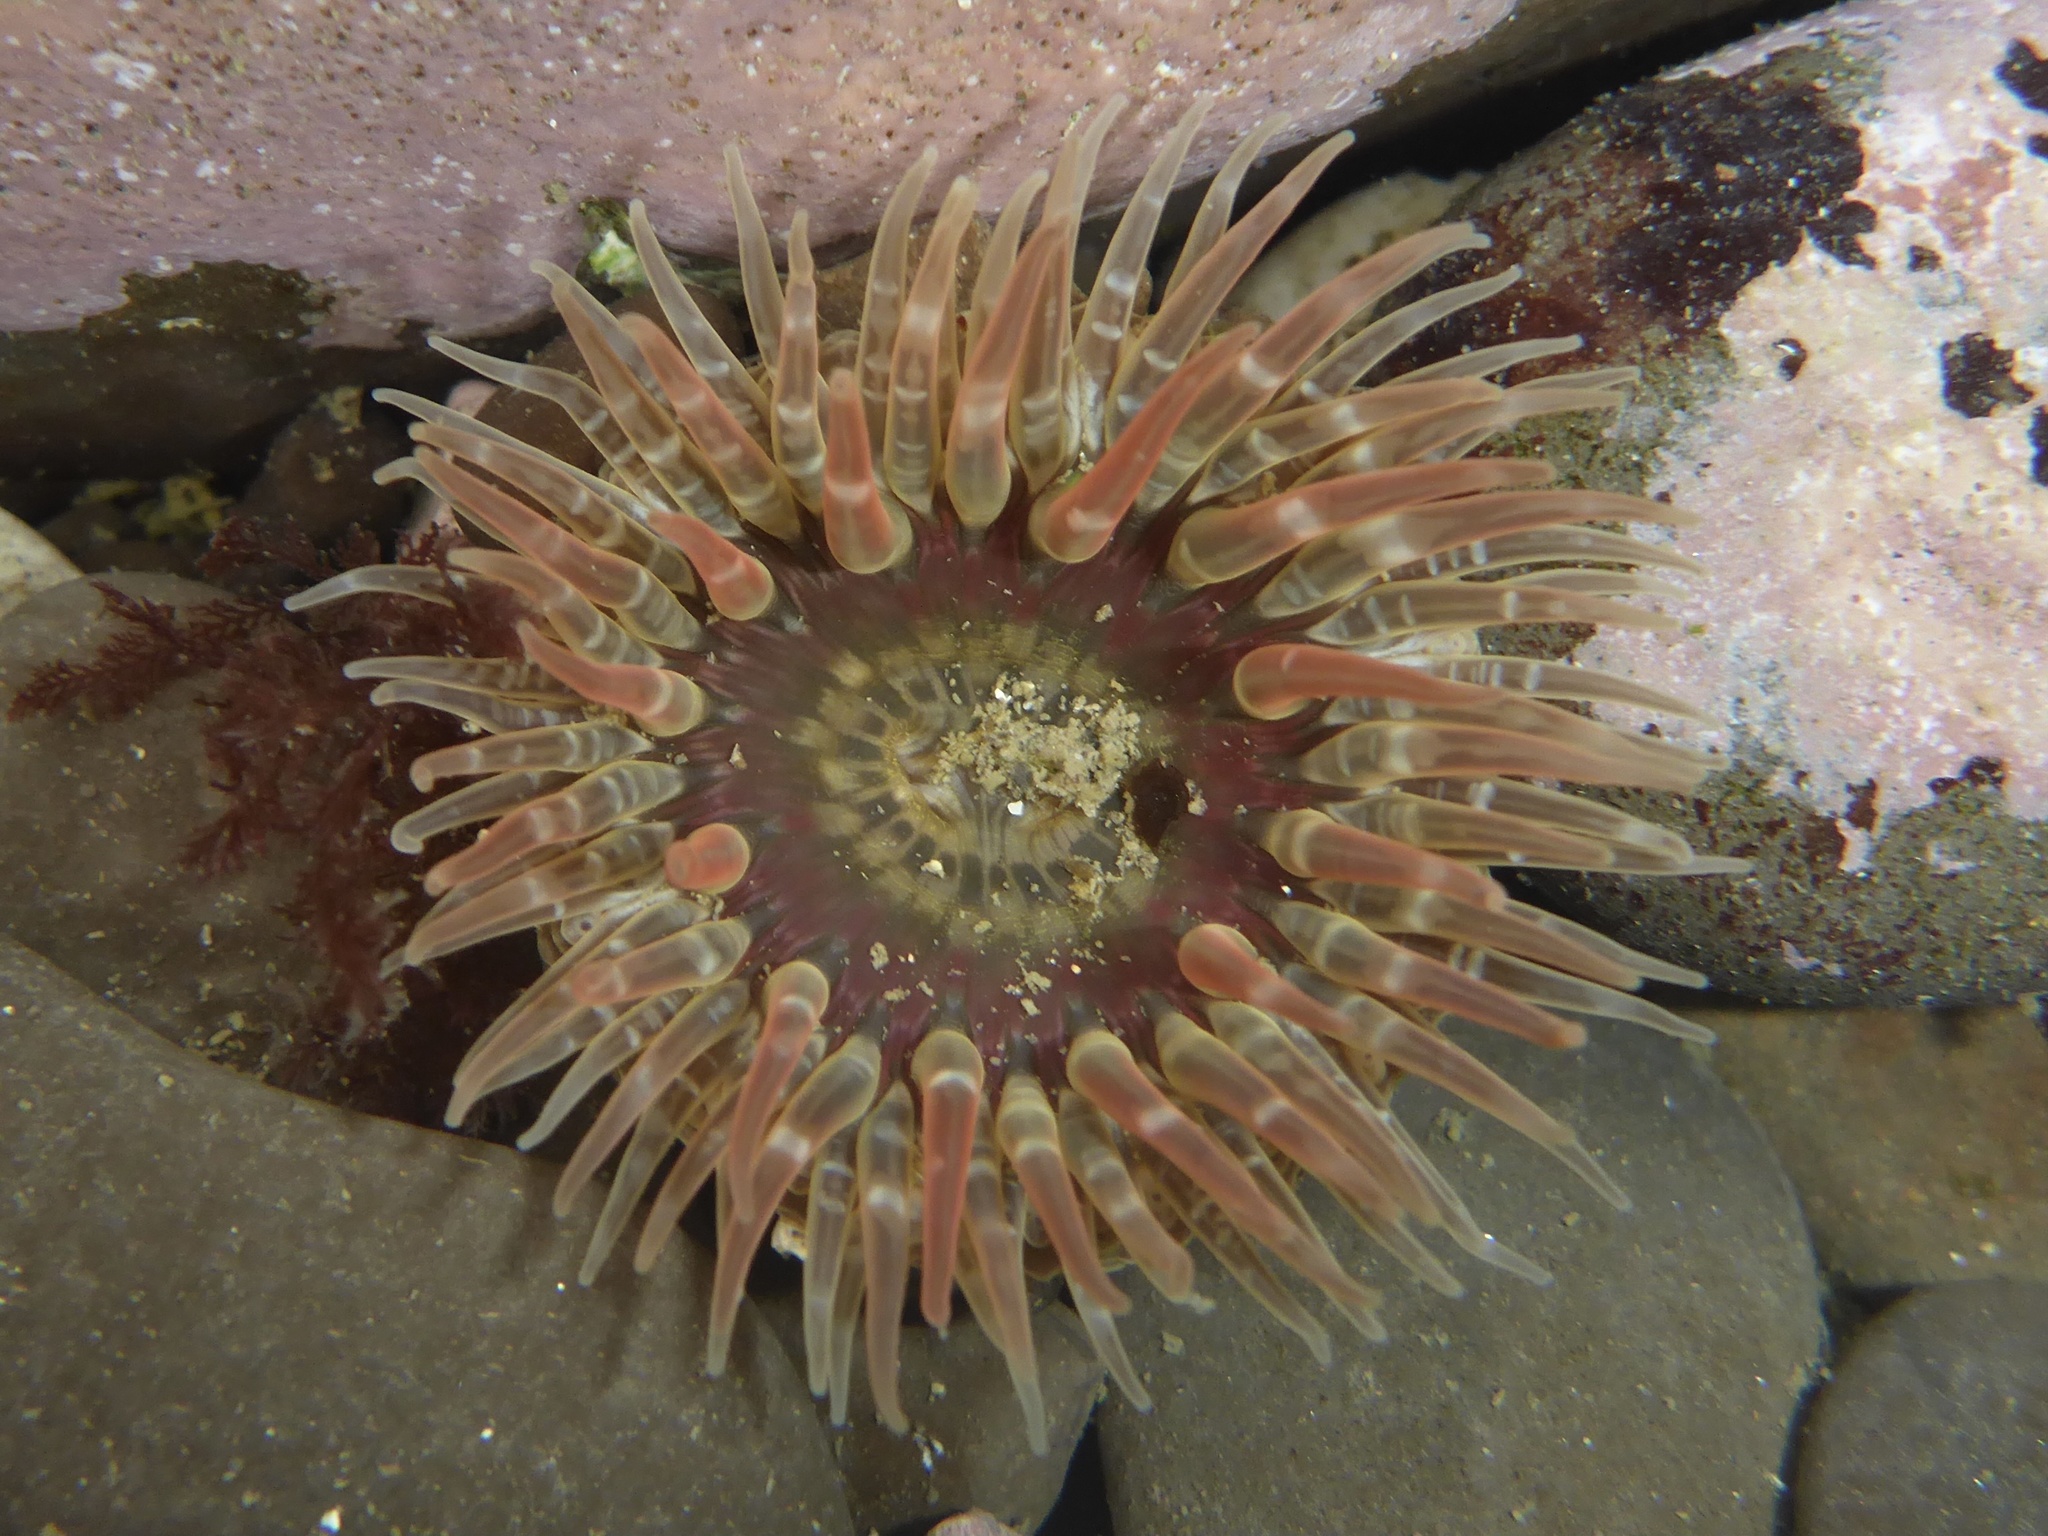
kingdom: Animalia
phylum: Cnidaria
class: Anthozoa
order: Actiniaria
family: Actiniidae
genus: Anthopleura
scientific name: Anthopleura artemisia
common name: Buried sea anemone
